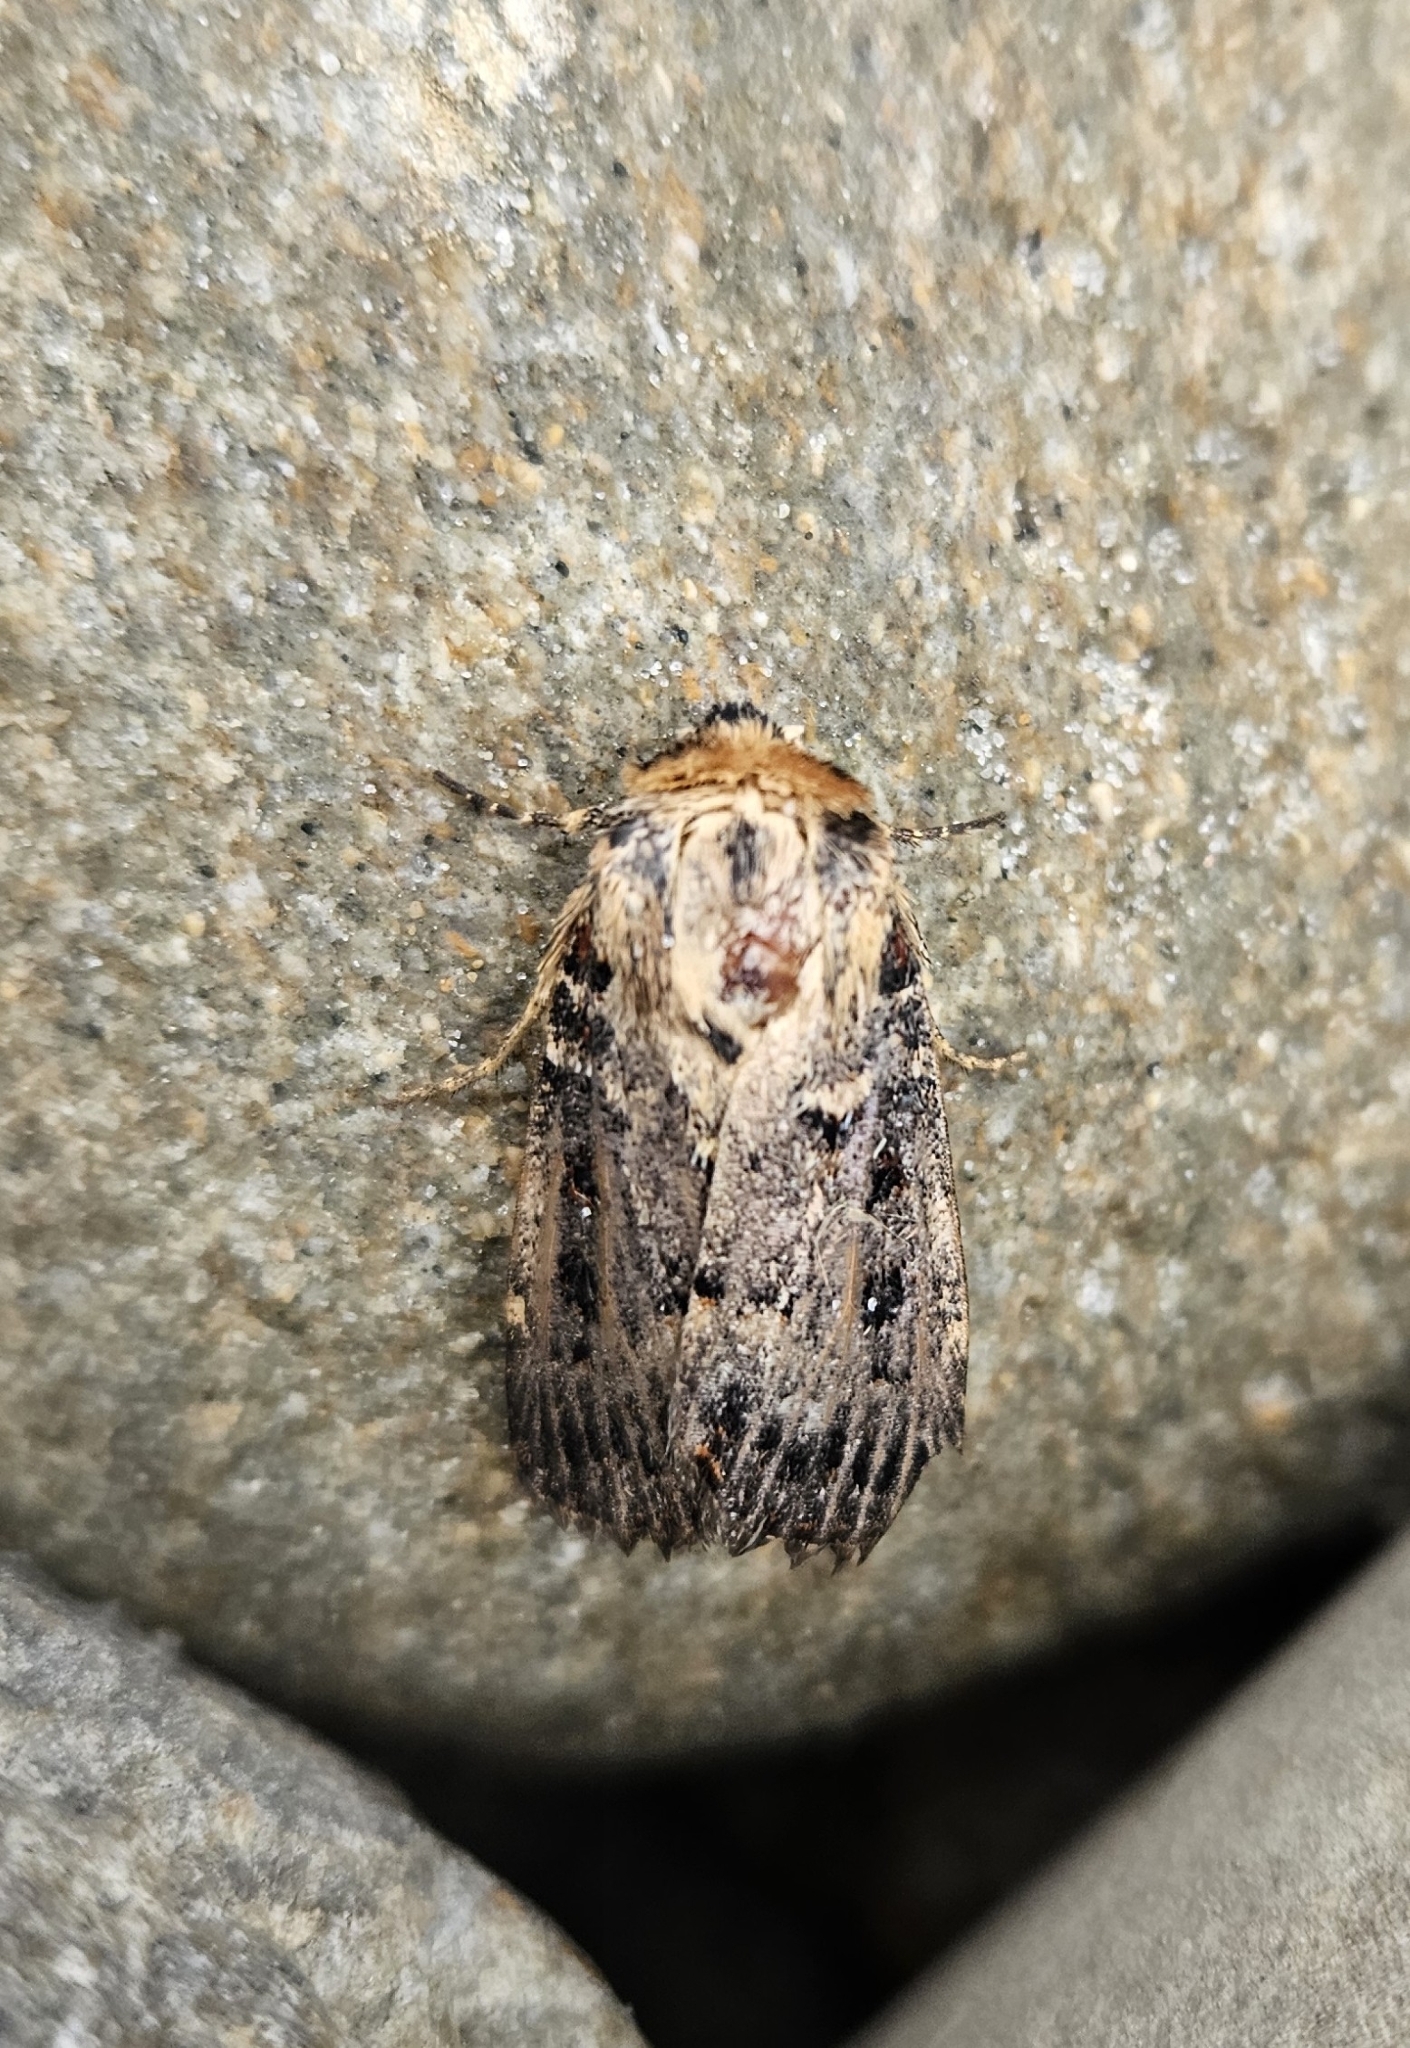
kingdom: Animalia
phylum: Arthropoda
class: Insecta
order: Lepidoptera
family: Noctuidae
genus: Proteuxoa
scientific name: Proteuxoa sanguinipuncta
